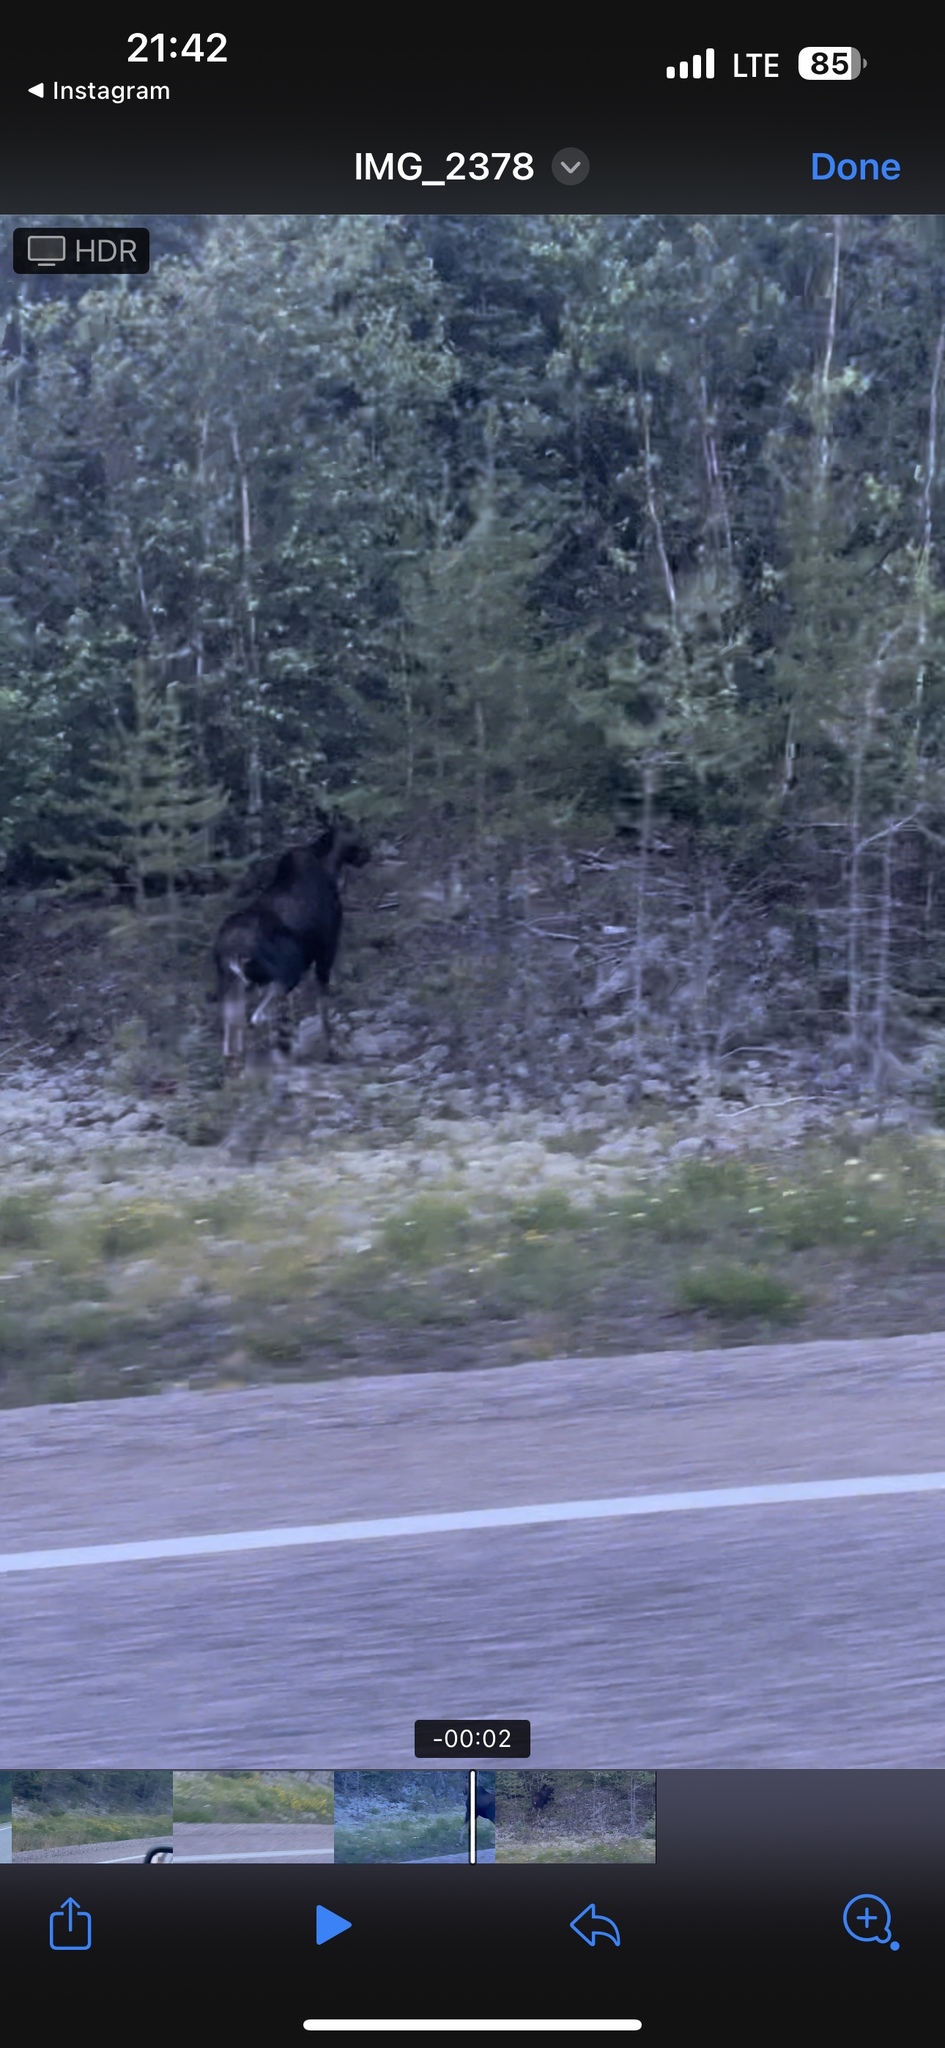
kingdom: Animalia
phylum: Chordata
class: Mammalia
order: Artiodactyla
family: Cervidae
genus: Alces
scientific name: Alces alces
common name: Moose
